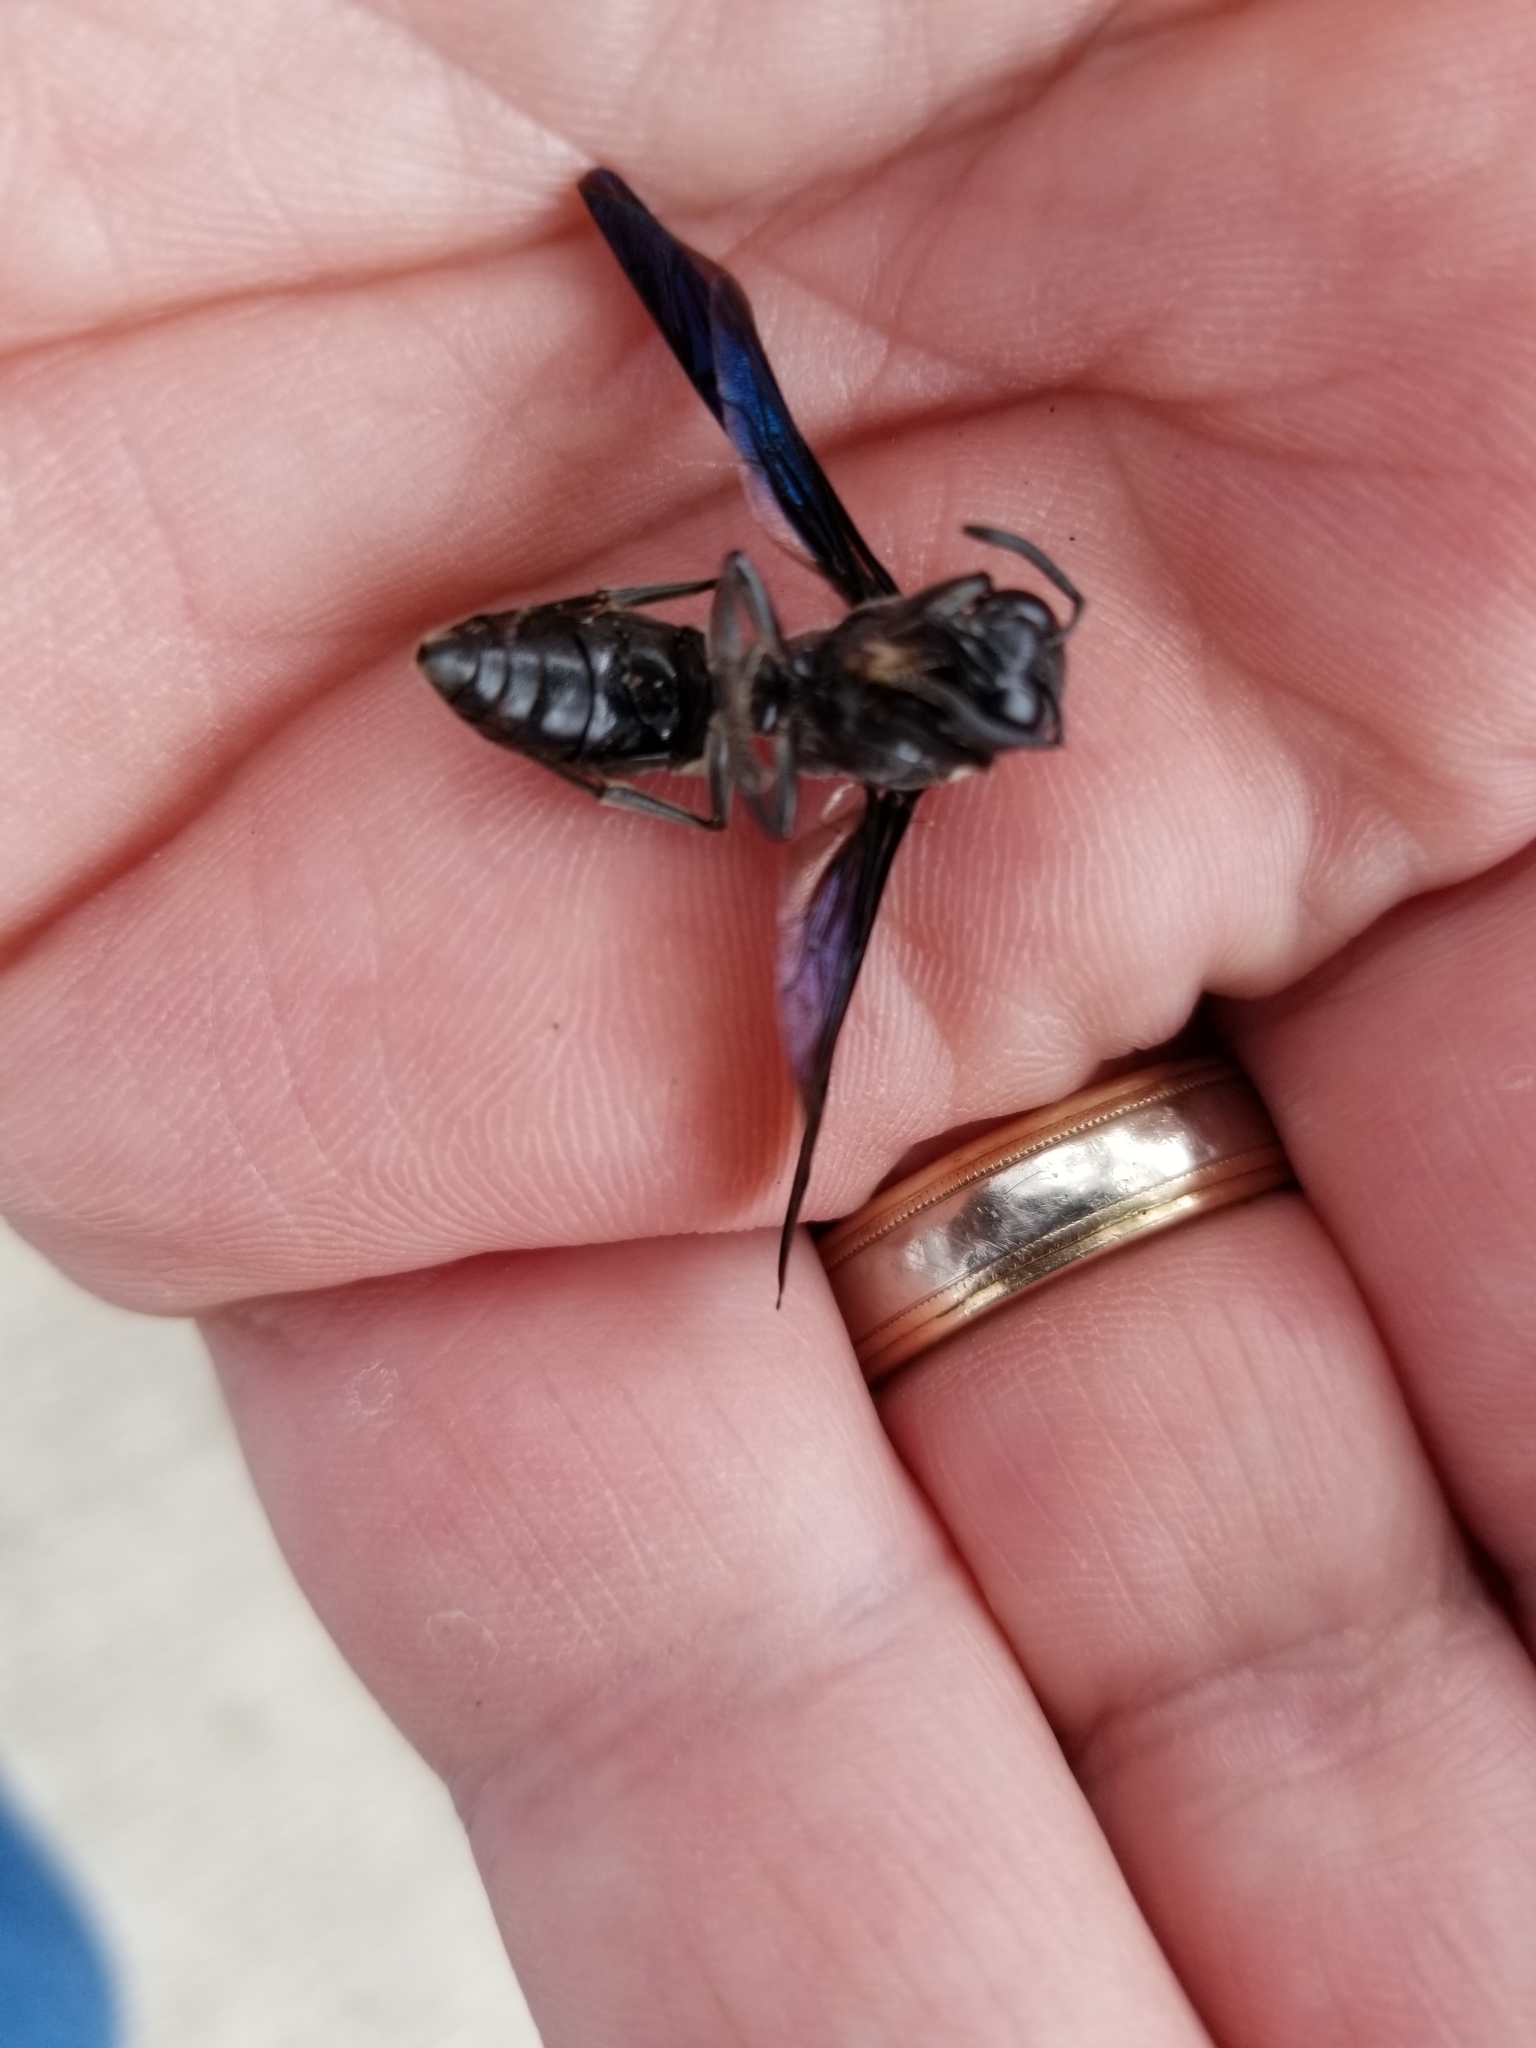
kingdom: Animalia
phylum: Arthropoda
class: Insecta
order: Hymenoptera
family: Eumenidae
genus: Monobia
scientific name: Monobia quadridens
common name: Four-toothed mason wasp
